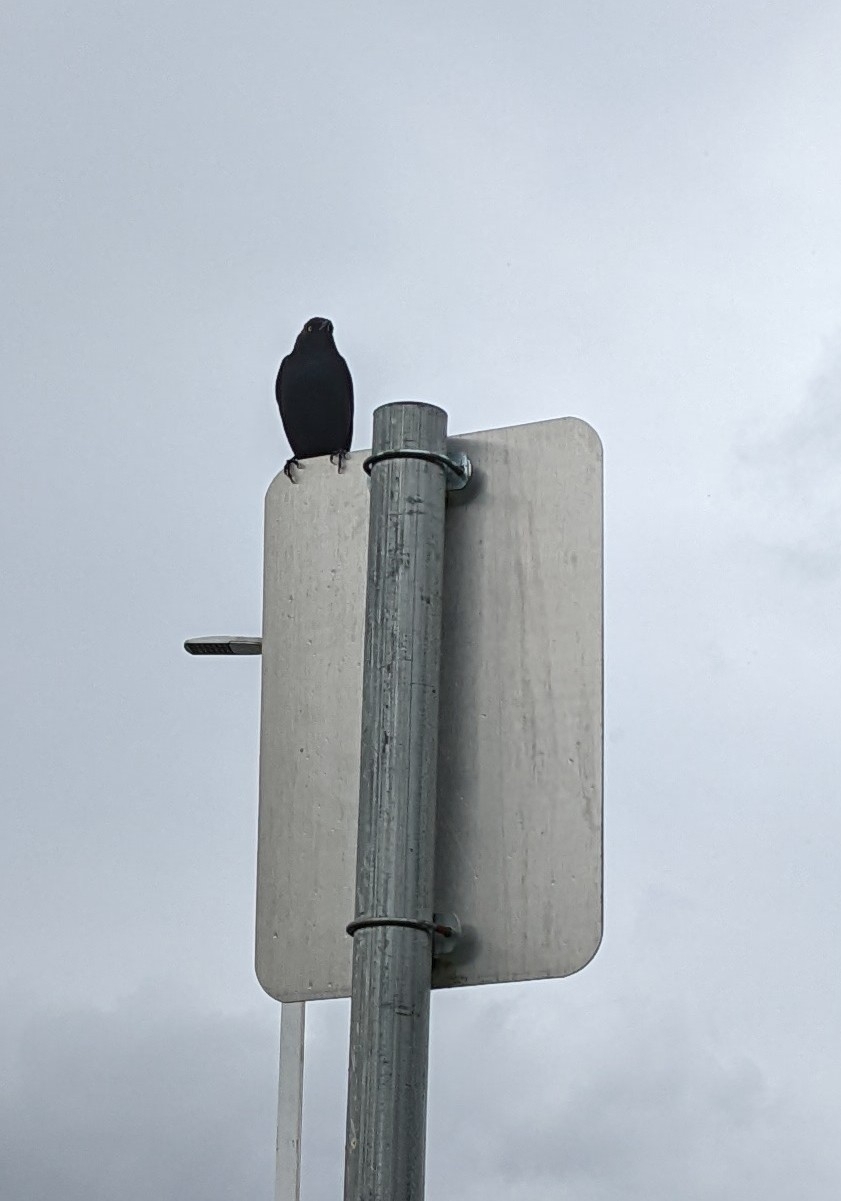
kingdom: Animalia
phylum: Chordata
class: Aves
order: Passeriformes
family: Icteridae
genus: Euphagus
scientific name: Euphagus cyanocephalus
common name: Brewer's blackbird
